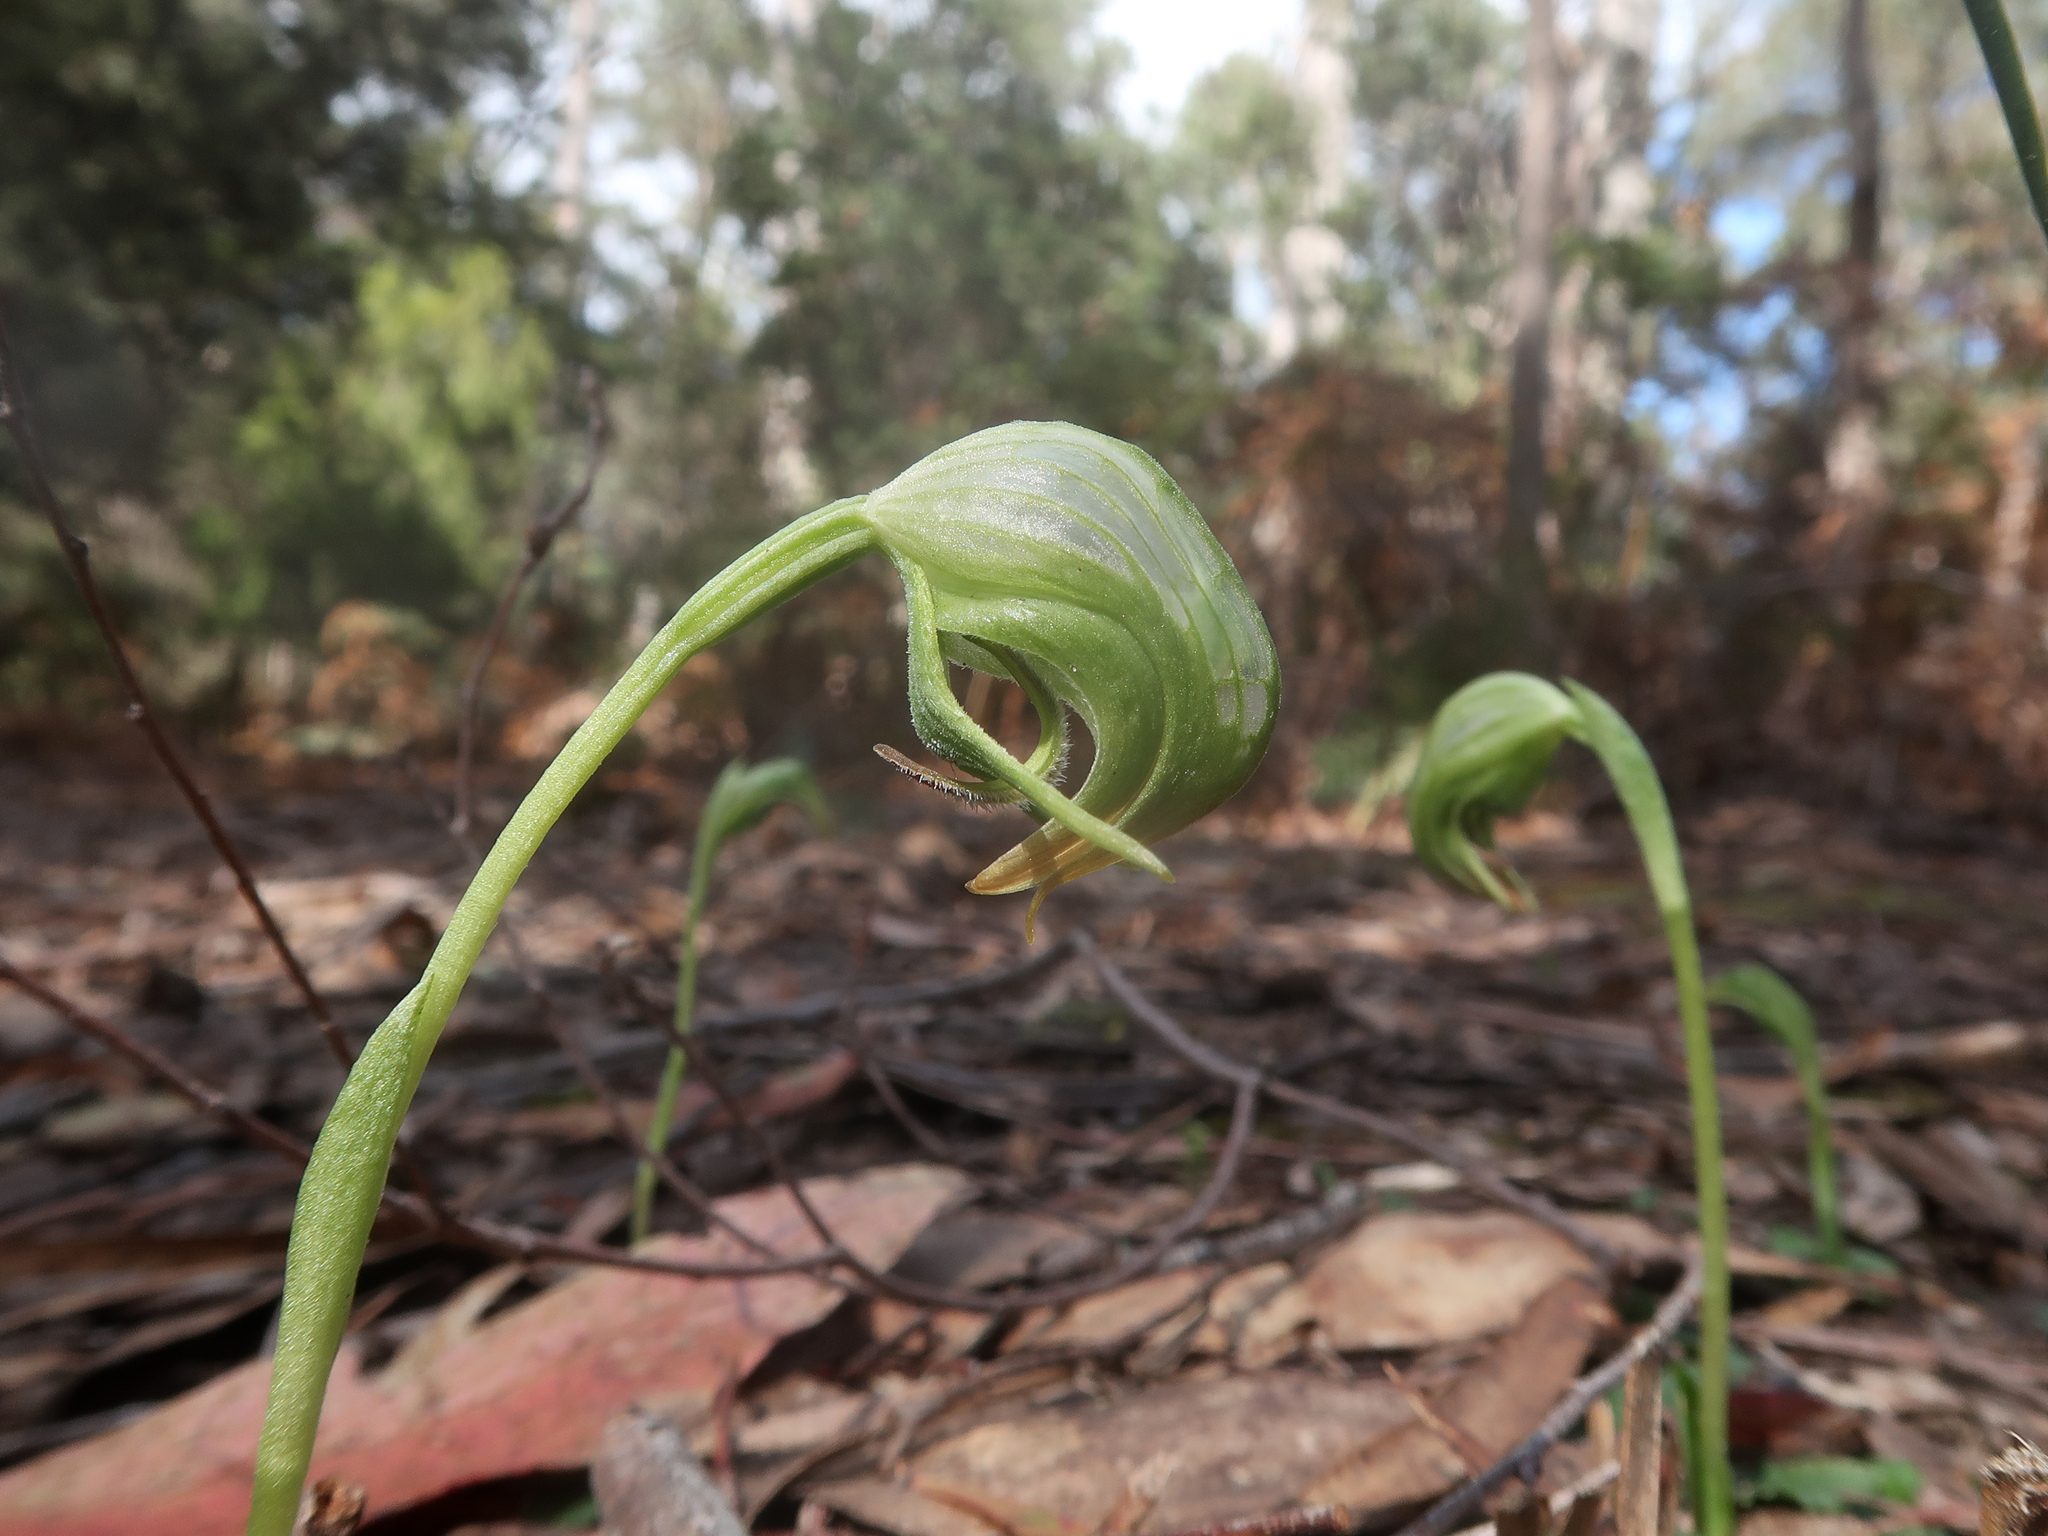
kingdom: Plantae
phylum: Tracheophyta
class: Liliopsida
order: Asparagales
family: Orchidaceae
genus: Pterostylis
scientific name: Pterostylis nutans
